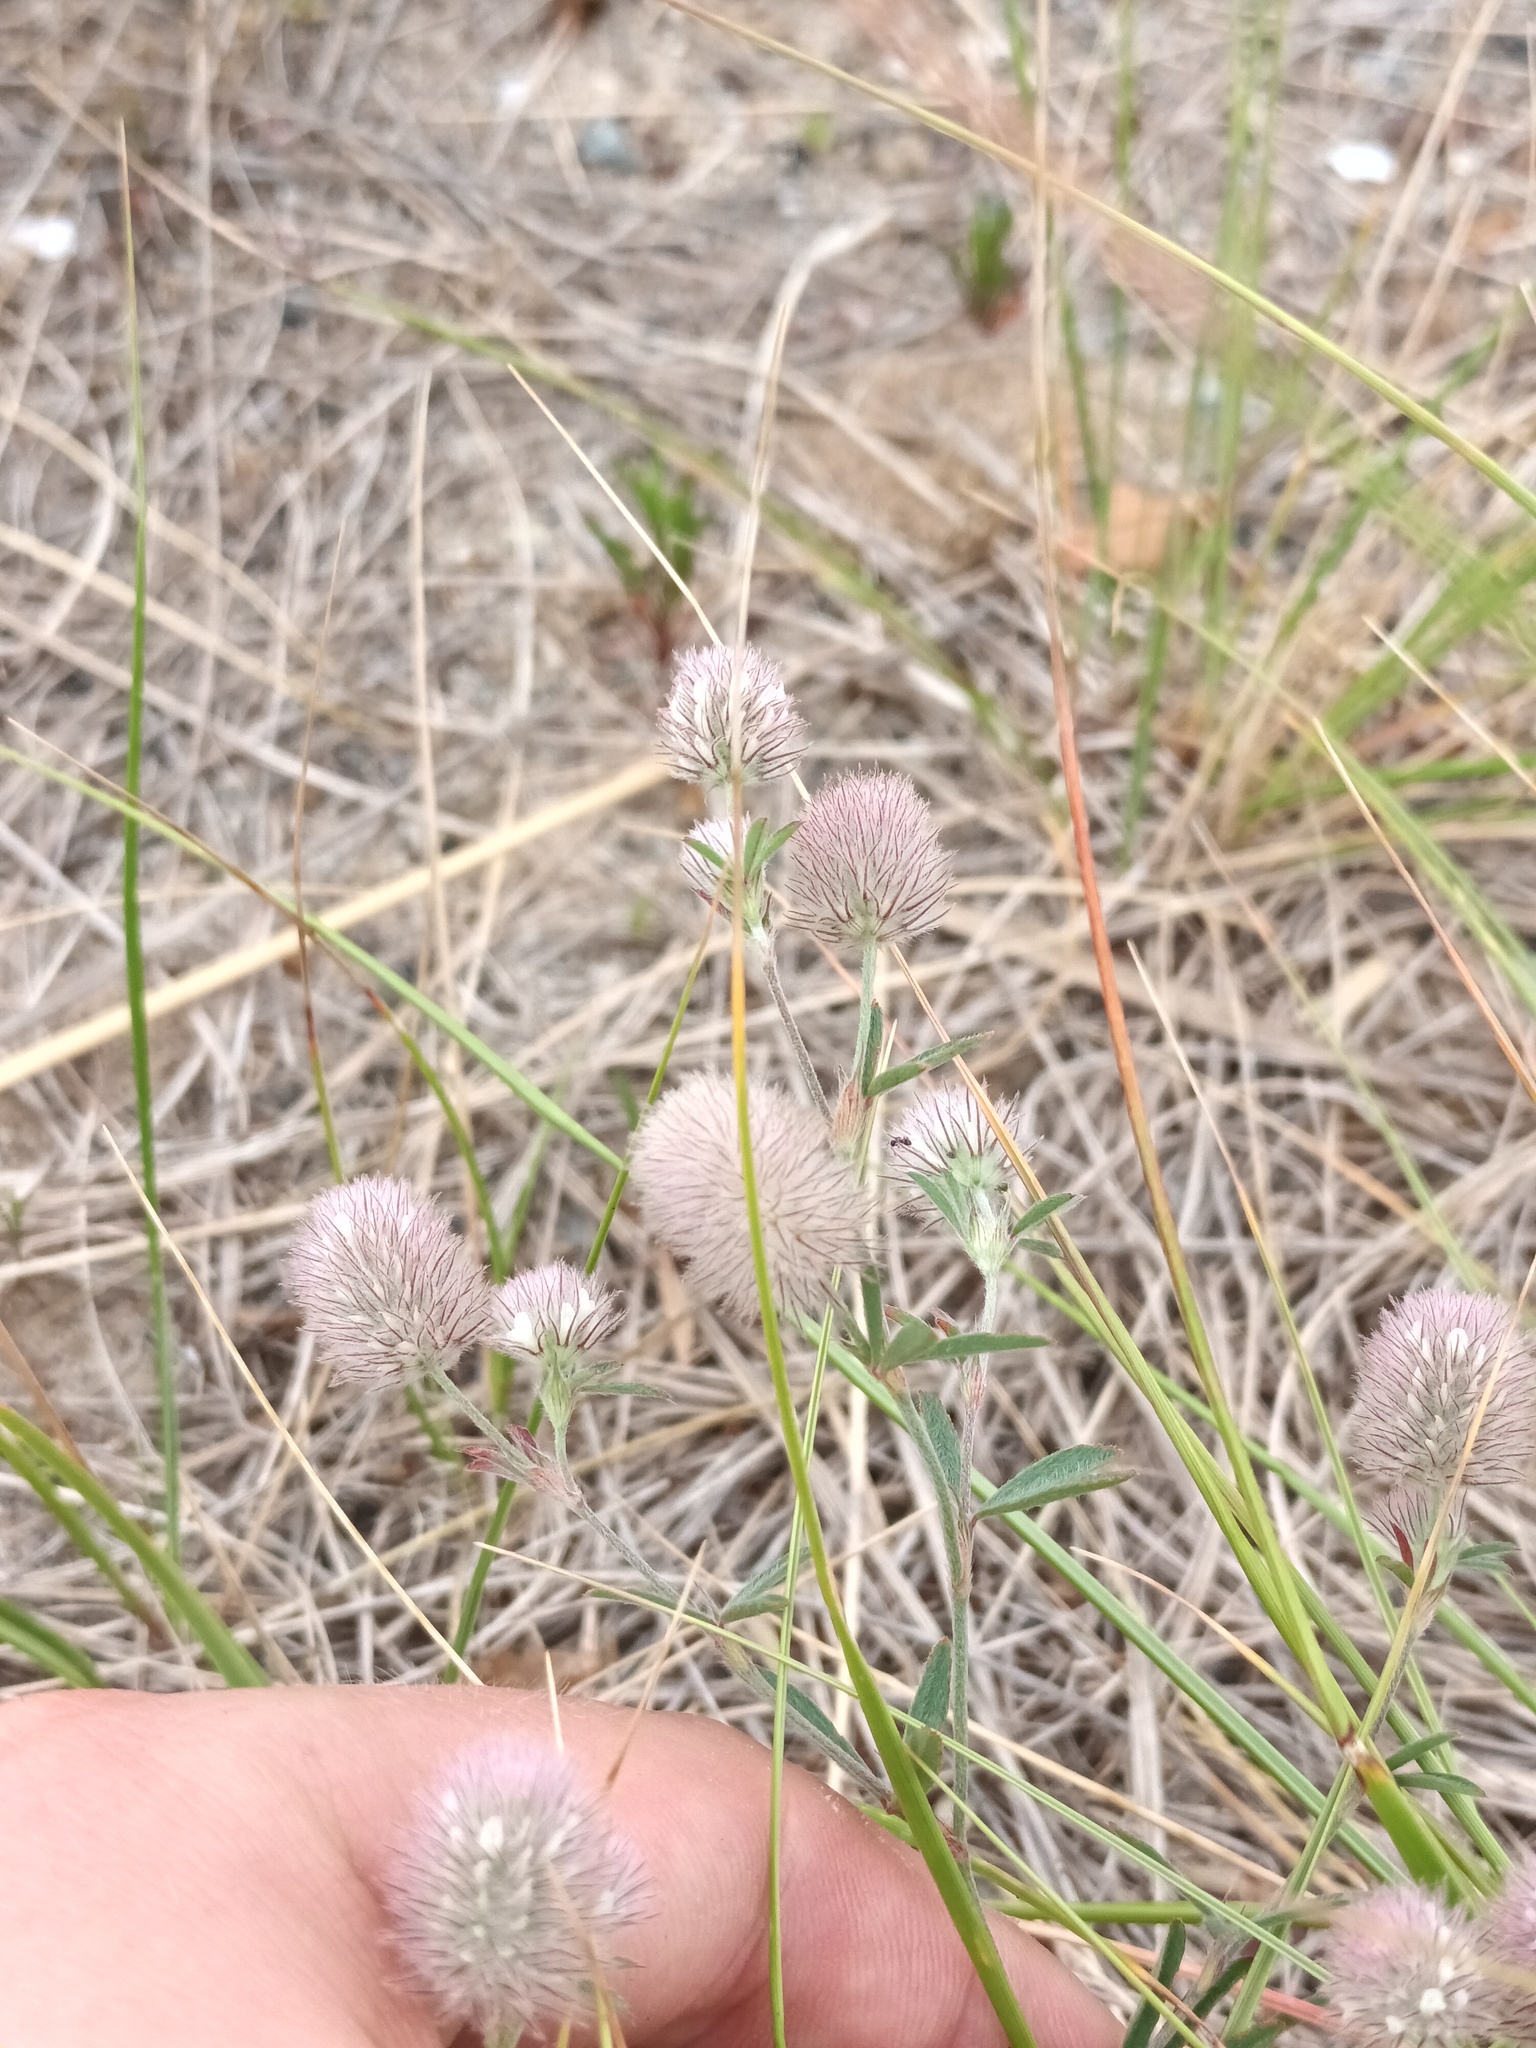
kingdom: Plantae
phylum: Tracheophyta
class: Magnoliopsida
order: Fabales
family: Fabaceae
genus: Trifolium
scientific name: Trifolium arvense
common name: Hare's-foot clover
